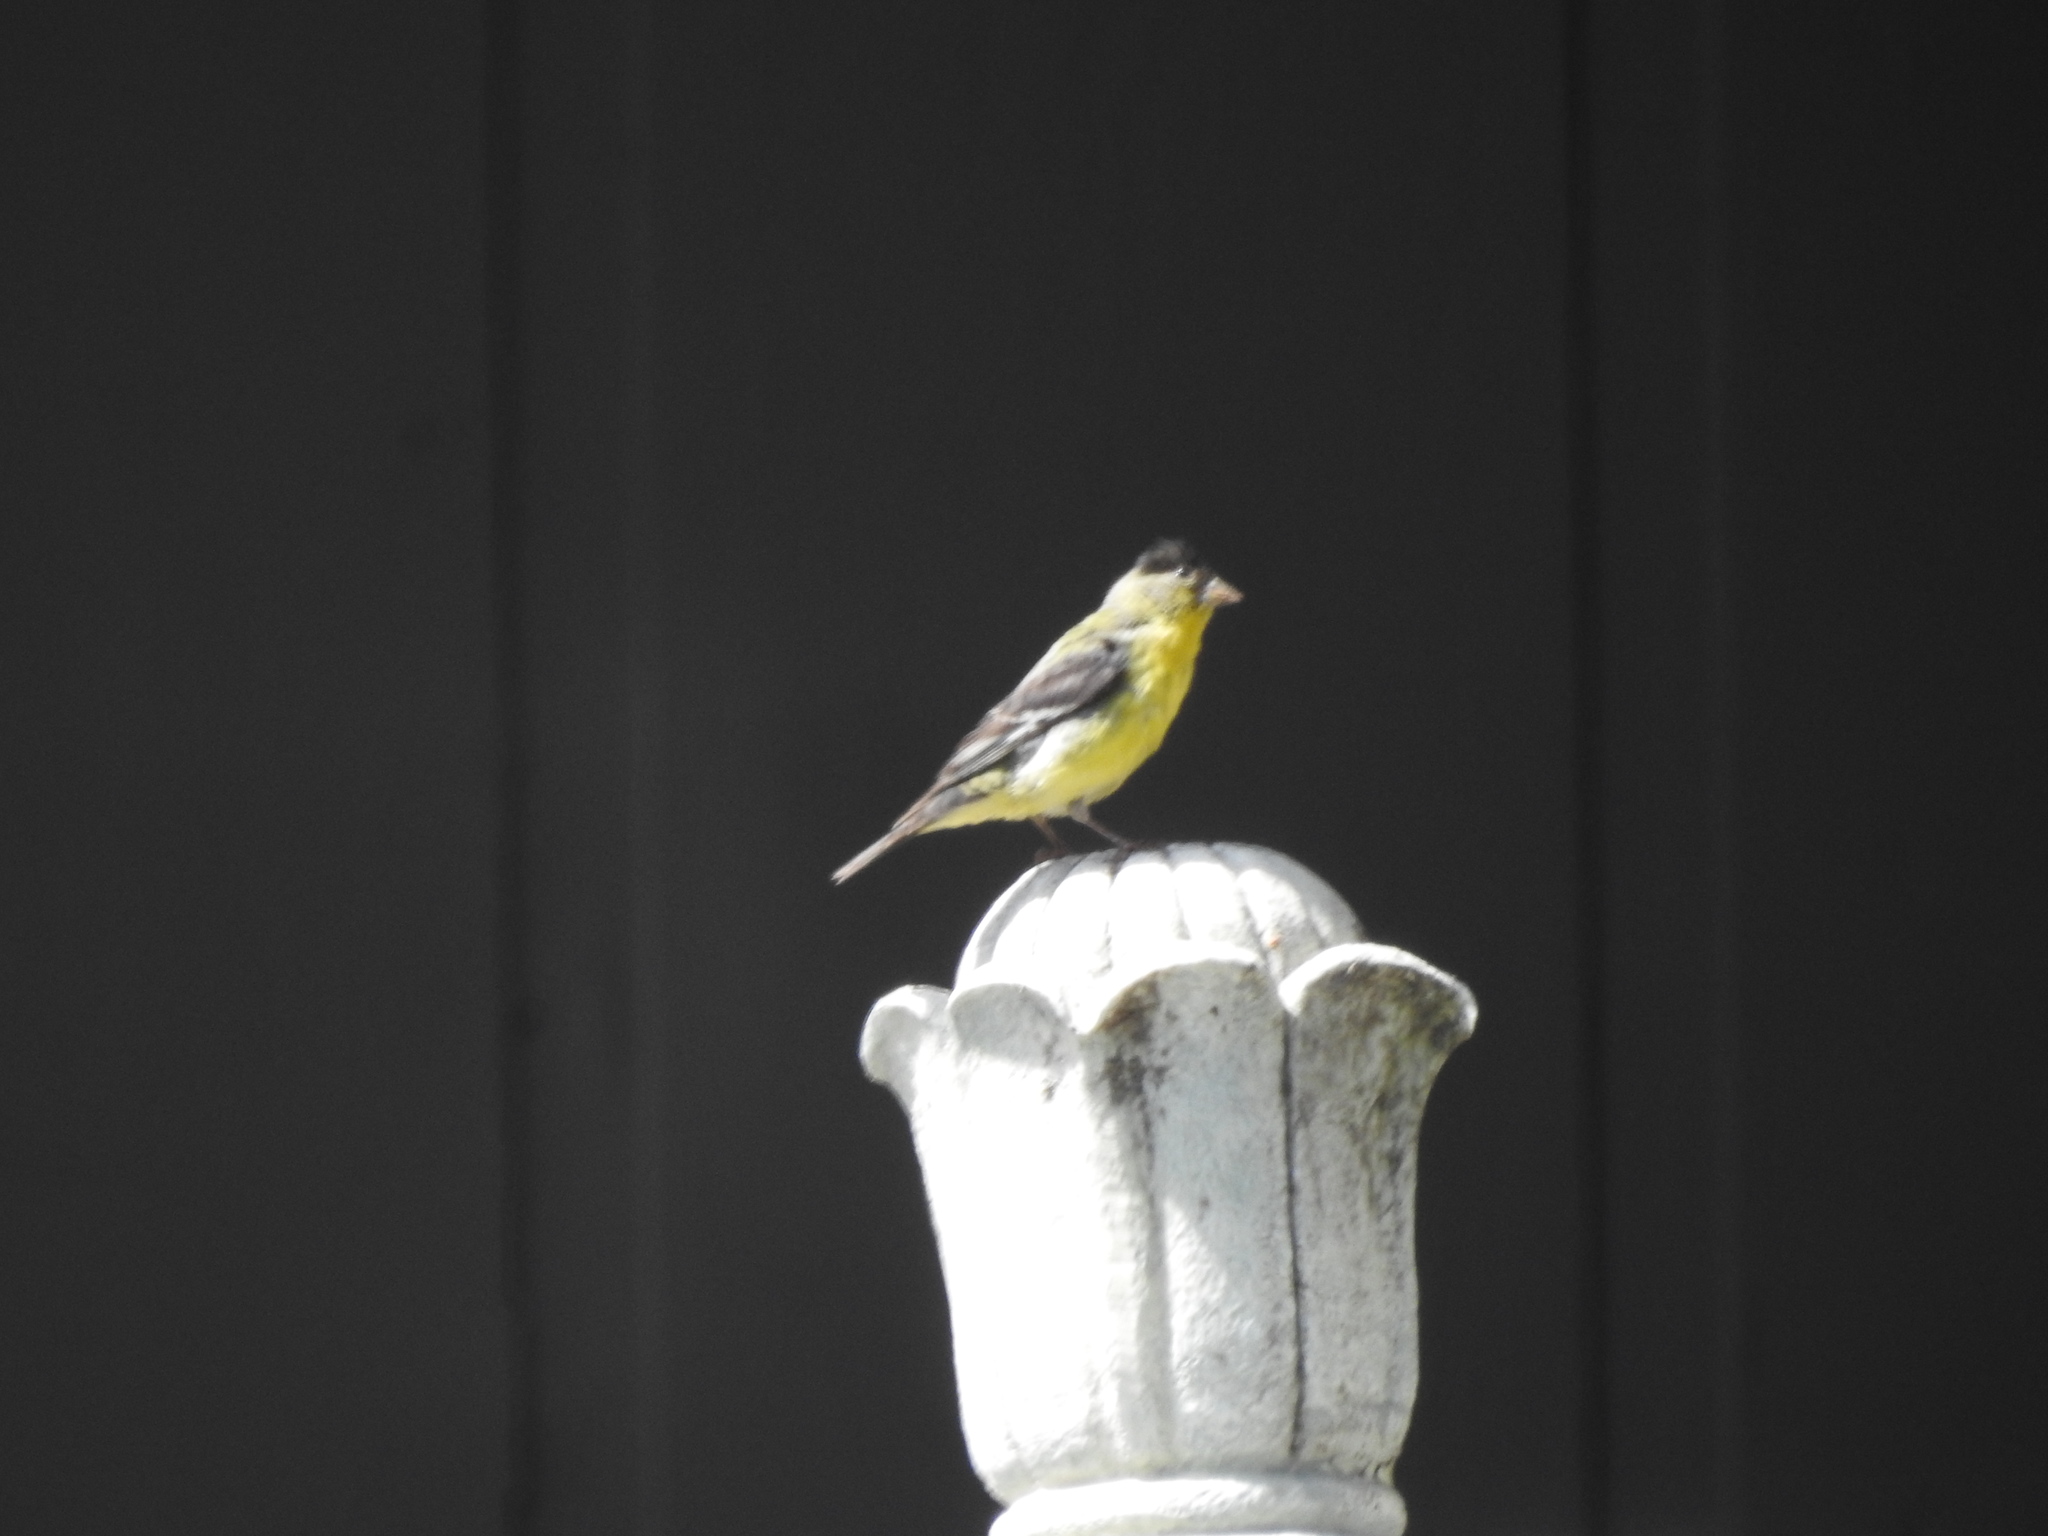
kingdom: Animalia
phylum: Chordata
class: Aves
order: Passeriformes
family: Fringillidae
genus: Spinus
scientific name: Spinus psaltria
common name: Lesser goldfinch
